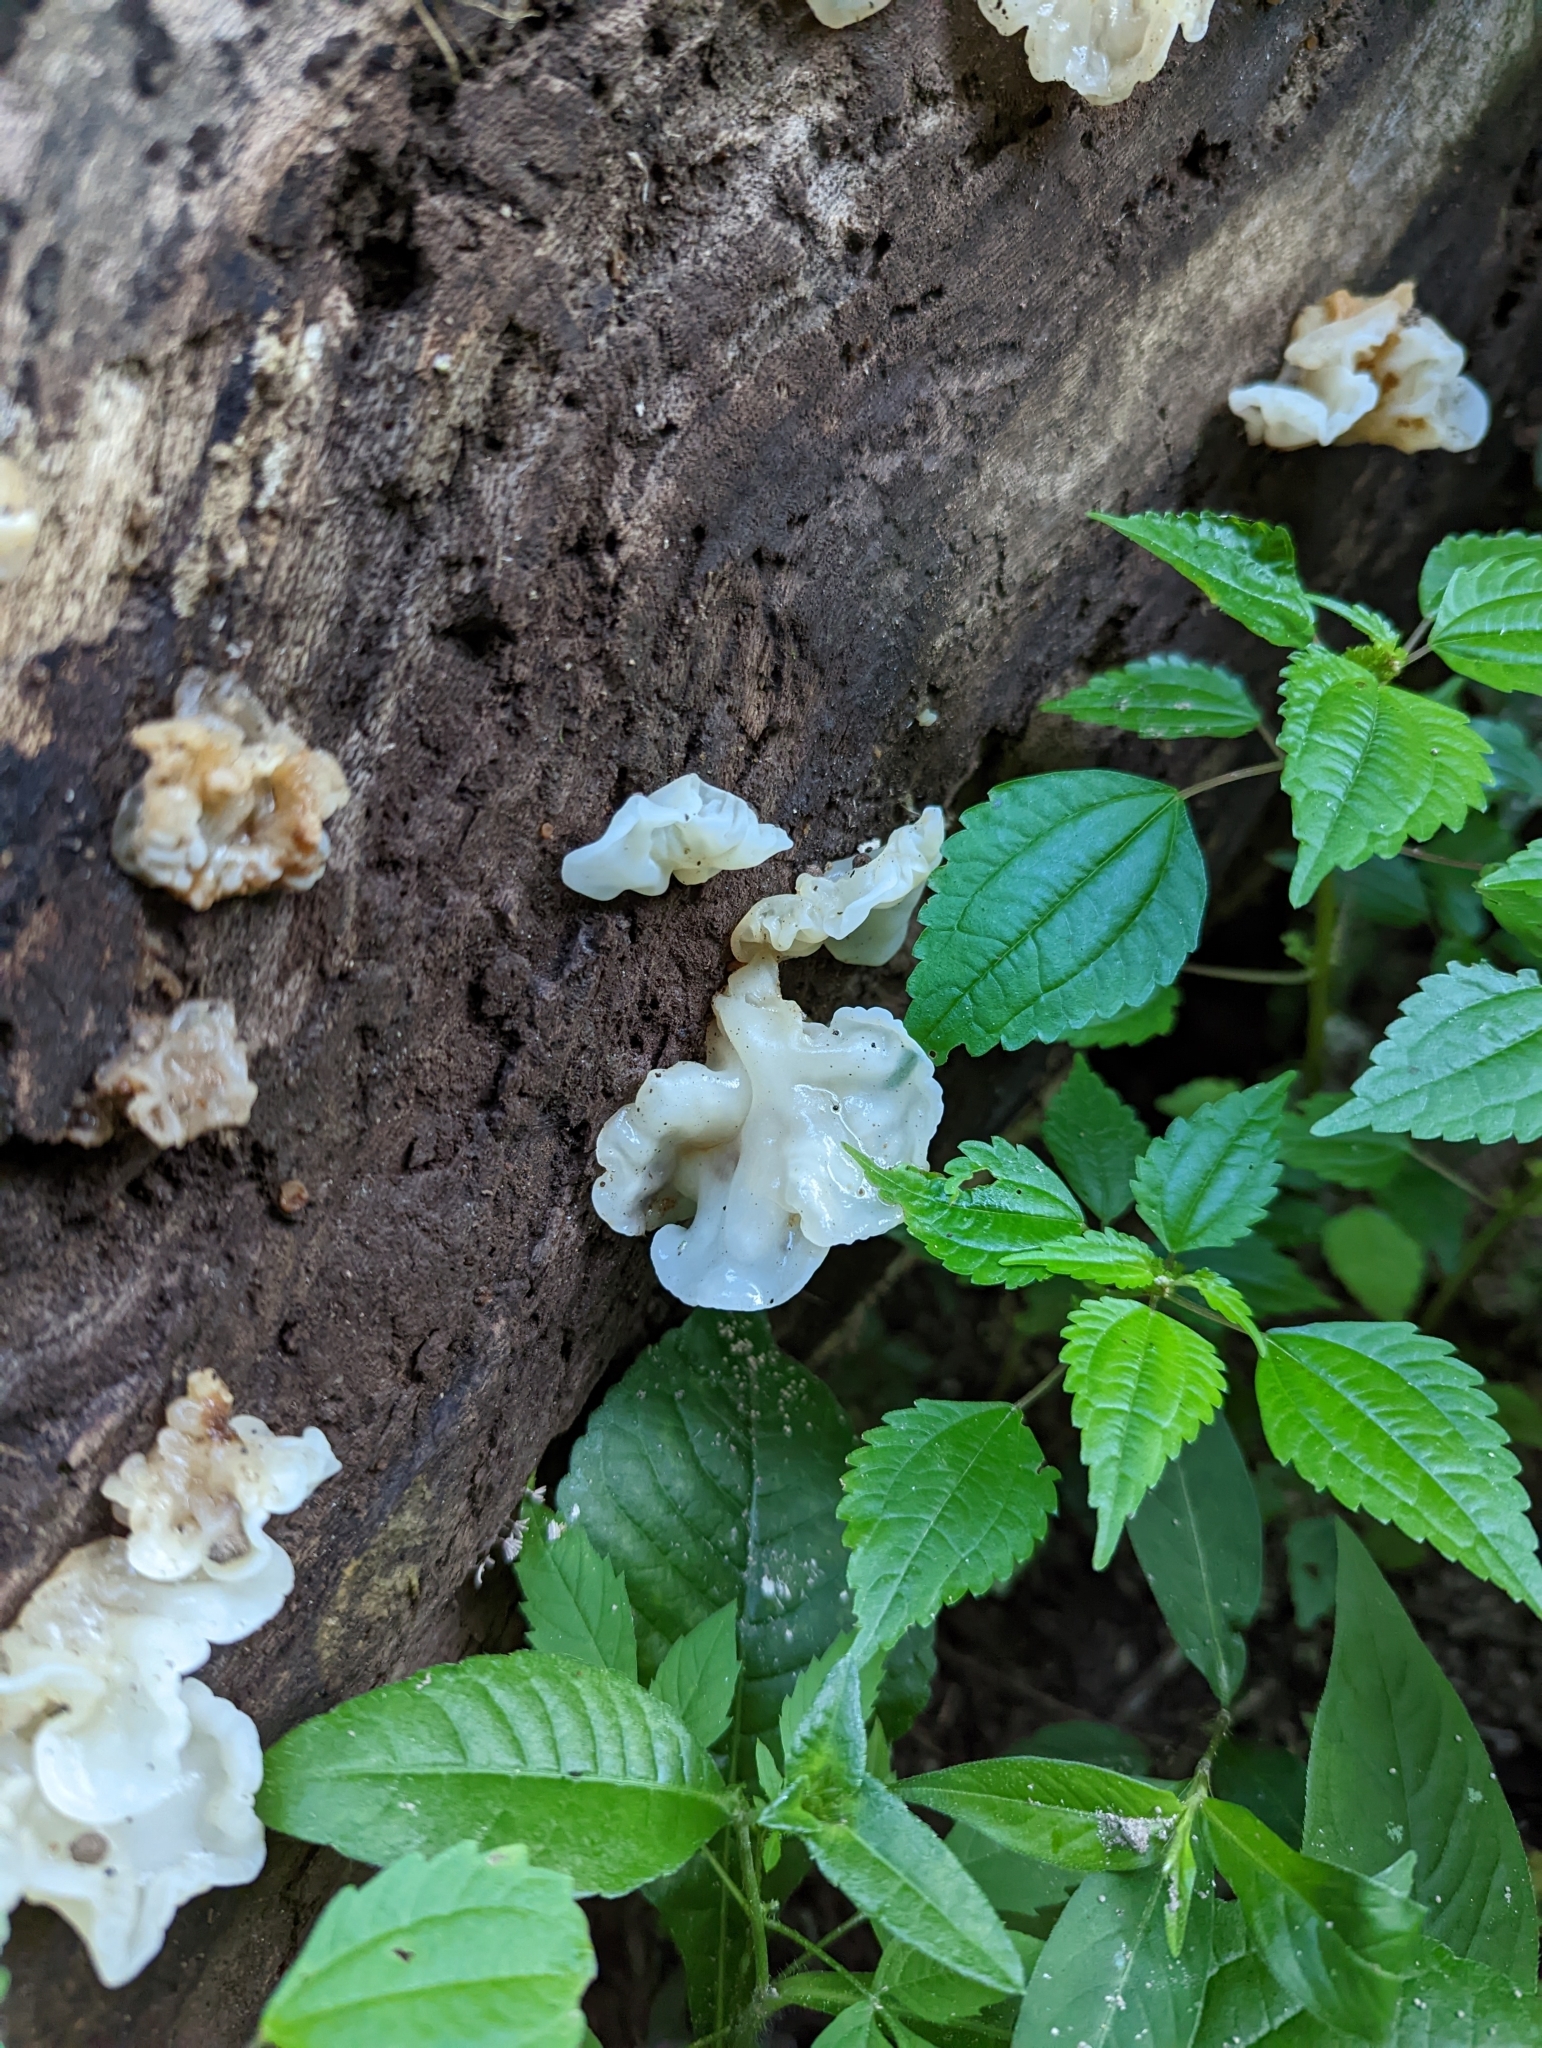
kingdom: Fungi
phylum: Basidiomycota
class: Agaricomycetes
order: Auriculariales
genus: Ductifera
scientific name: Ductifera pululahuana
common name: White jelly fungus
